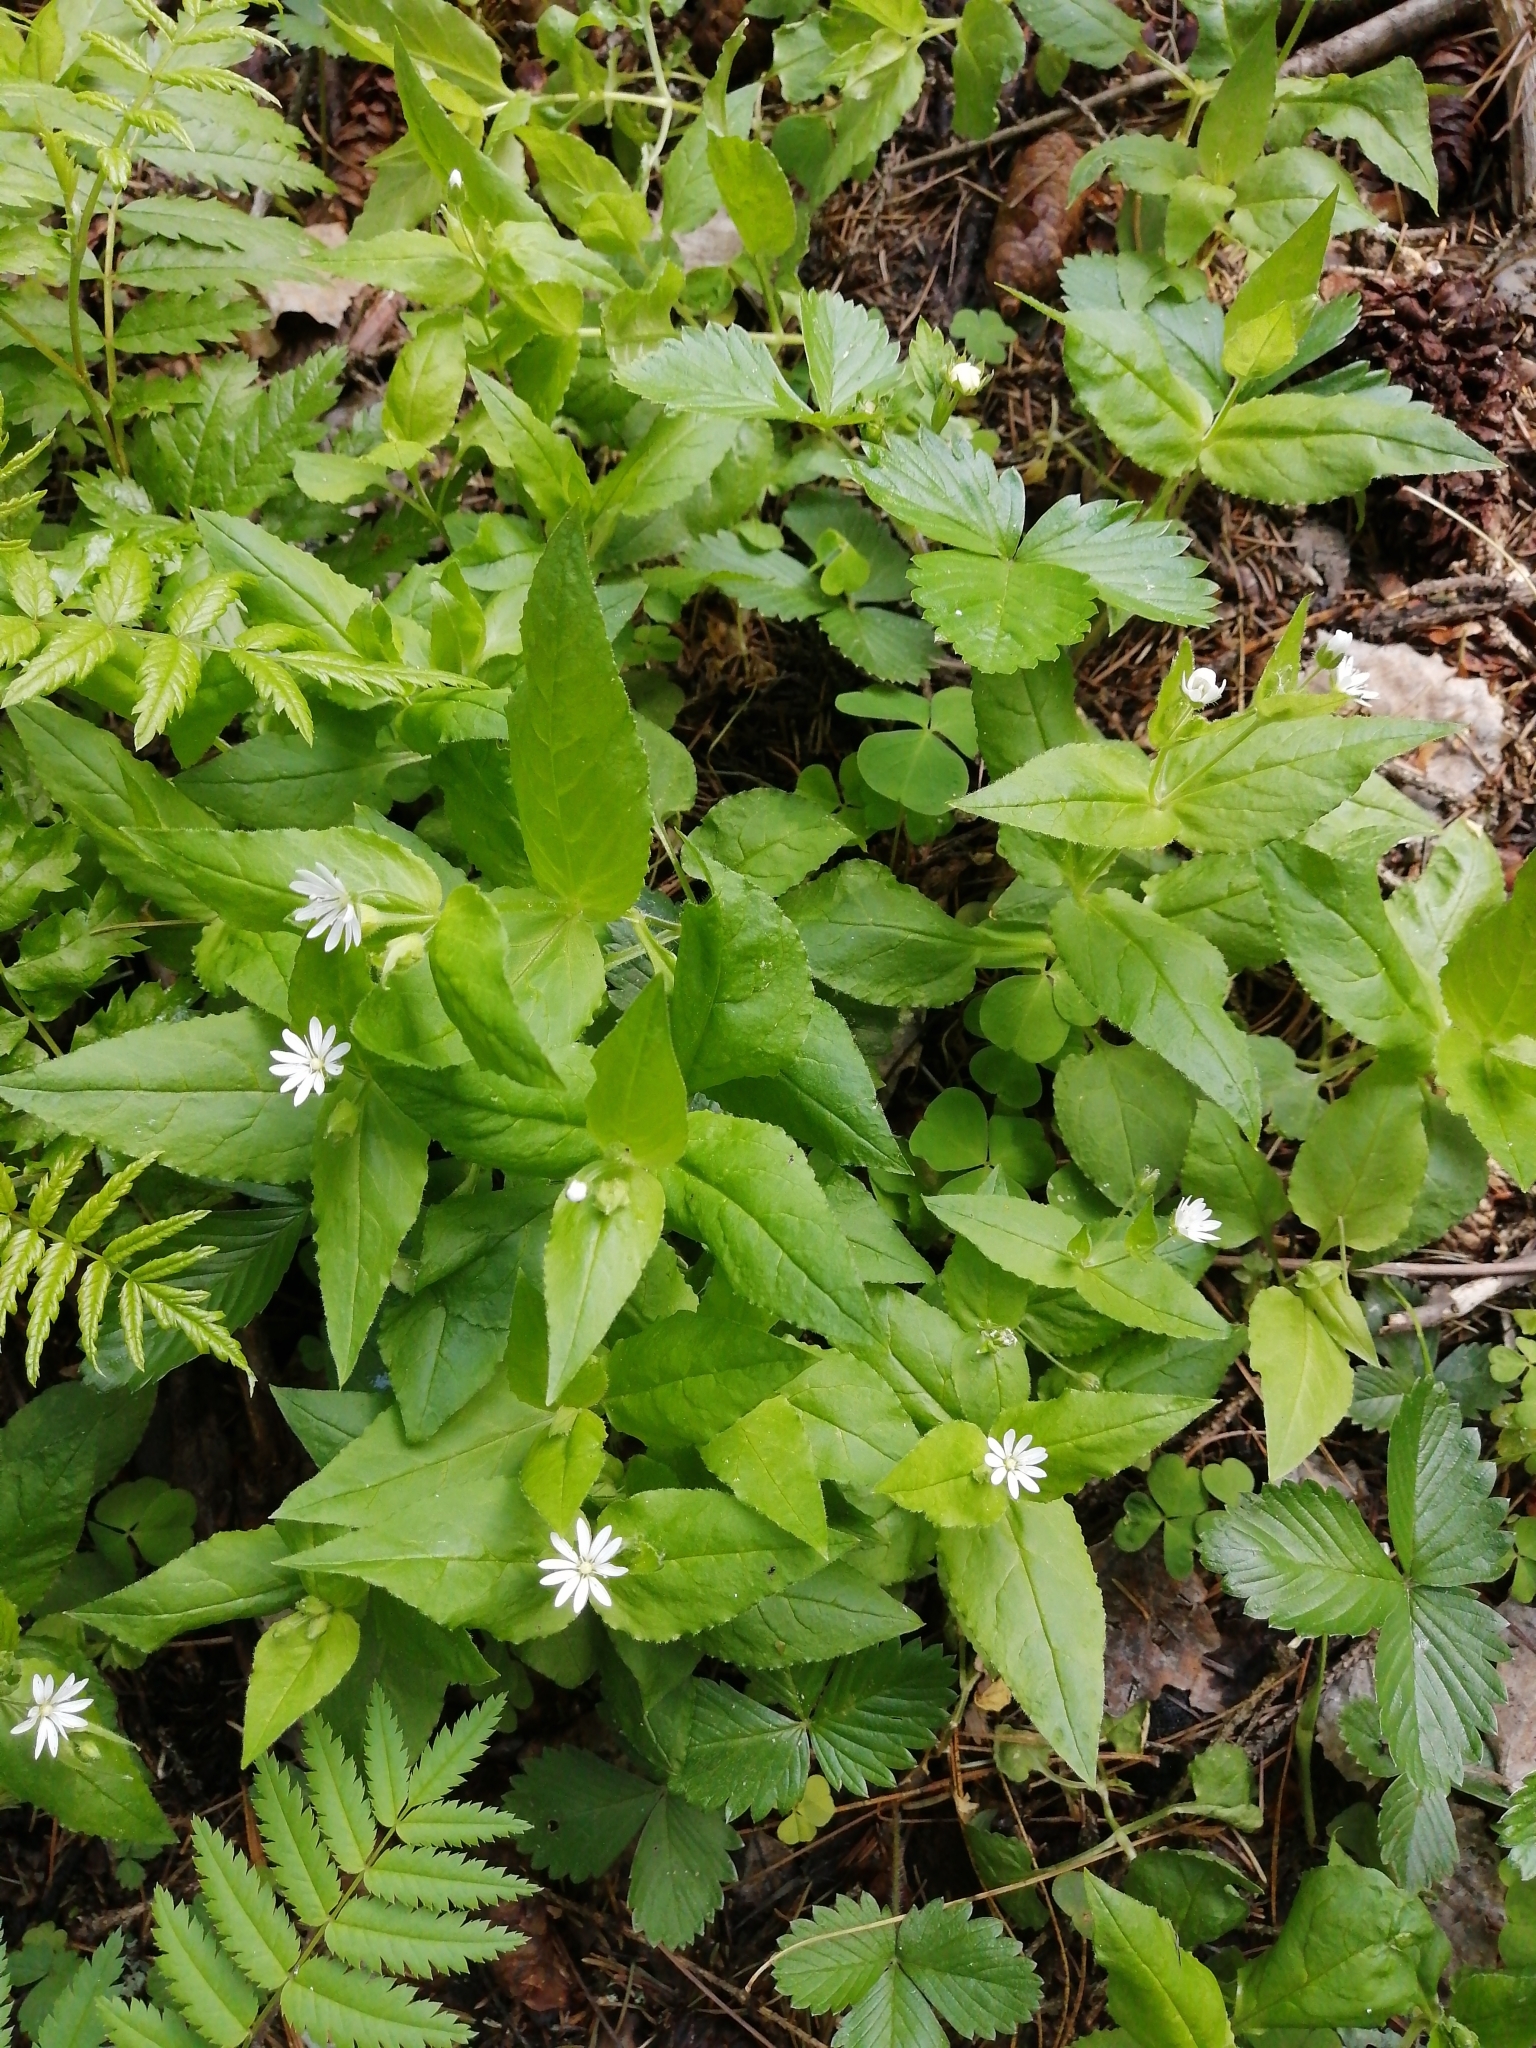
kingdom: Plantae
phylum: Tracheophyta
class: Magnoliopsida
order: Caryophyllales
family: Caryophyllaceae
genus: Stellaria
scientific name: Stellaria bungeana
